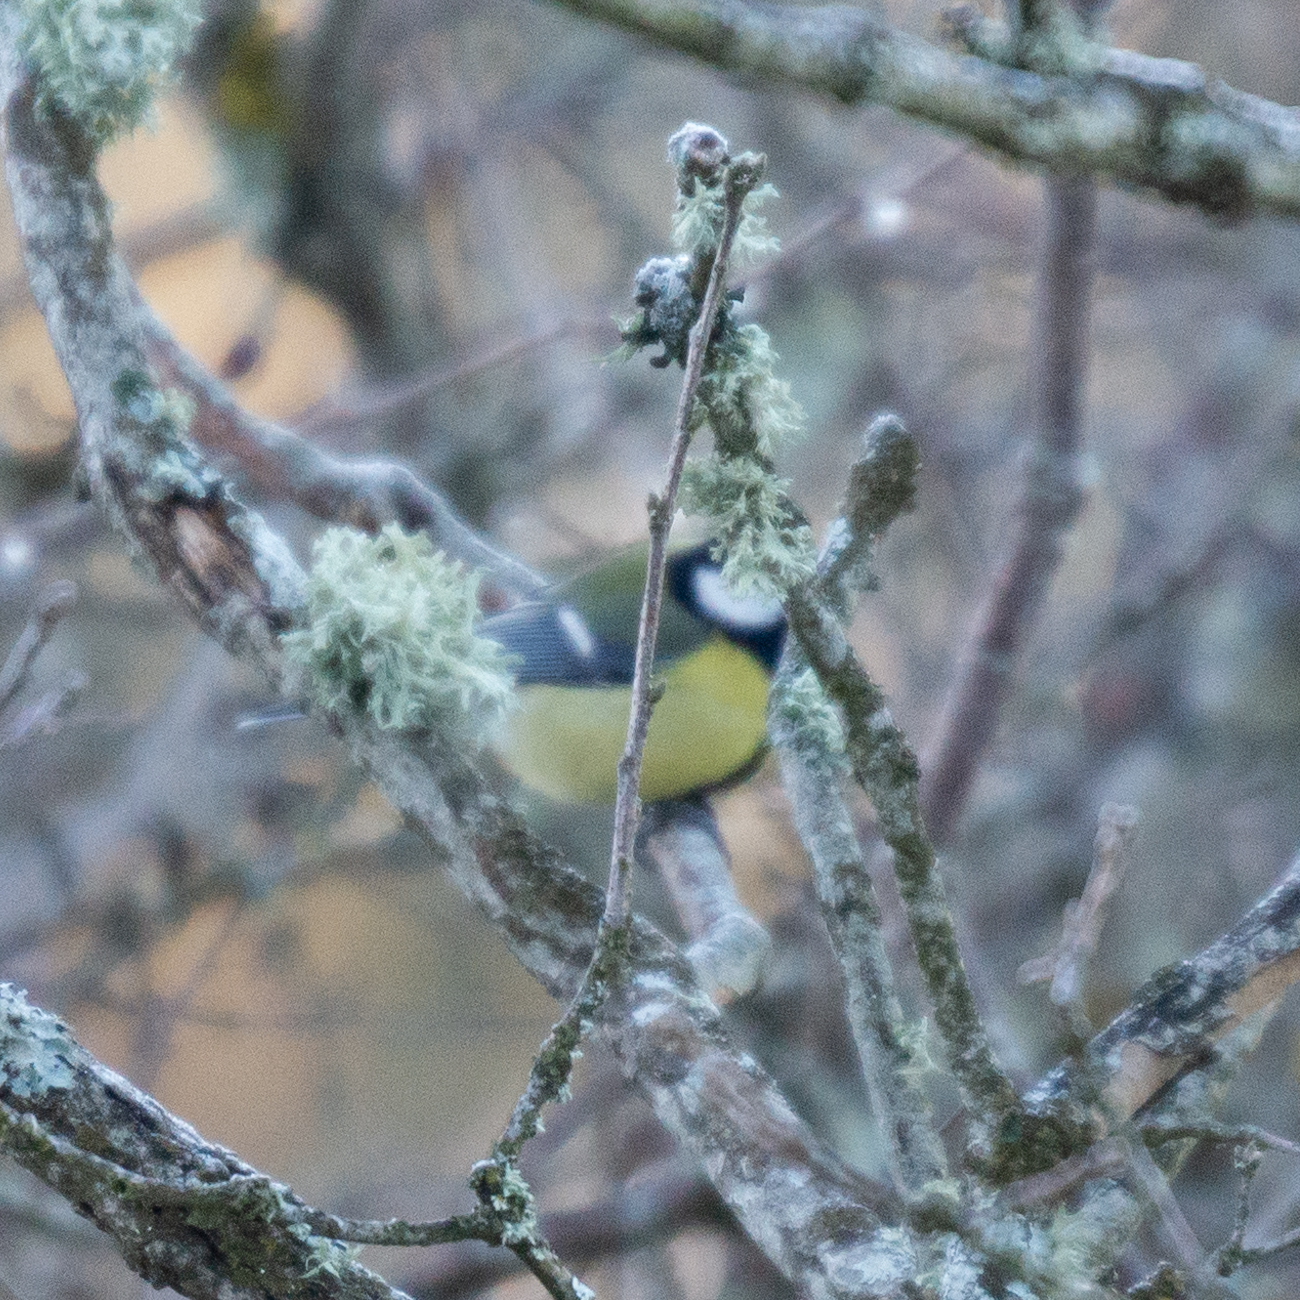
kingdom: Animalia
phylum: Chordata
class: Aves
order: Passeriformes
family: Paridae
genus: Parus
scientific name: Parus major
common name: Great tit
